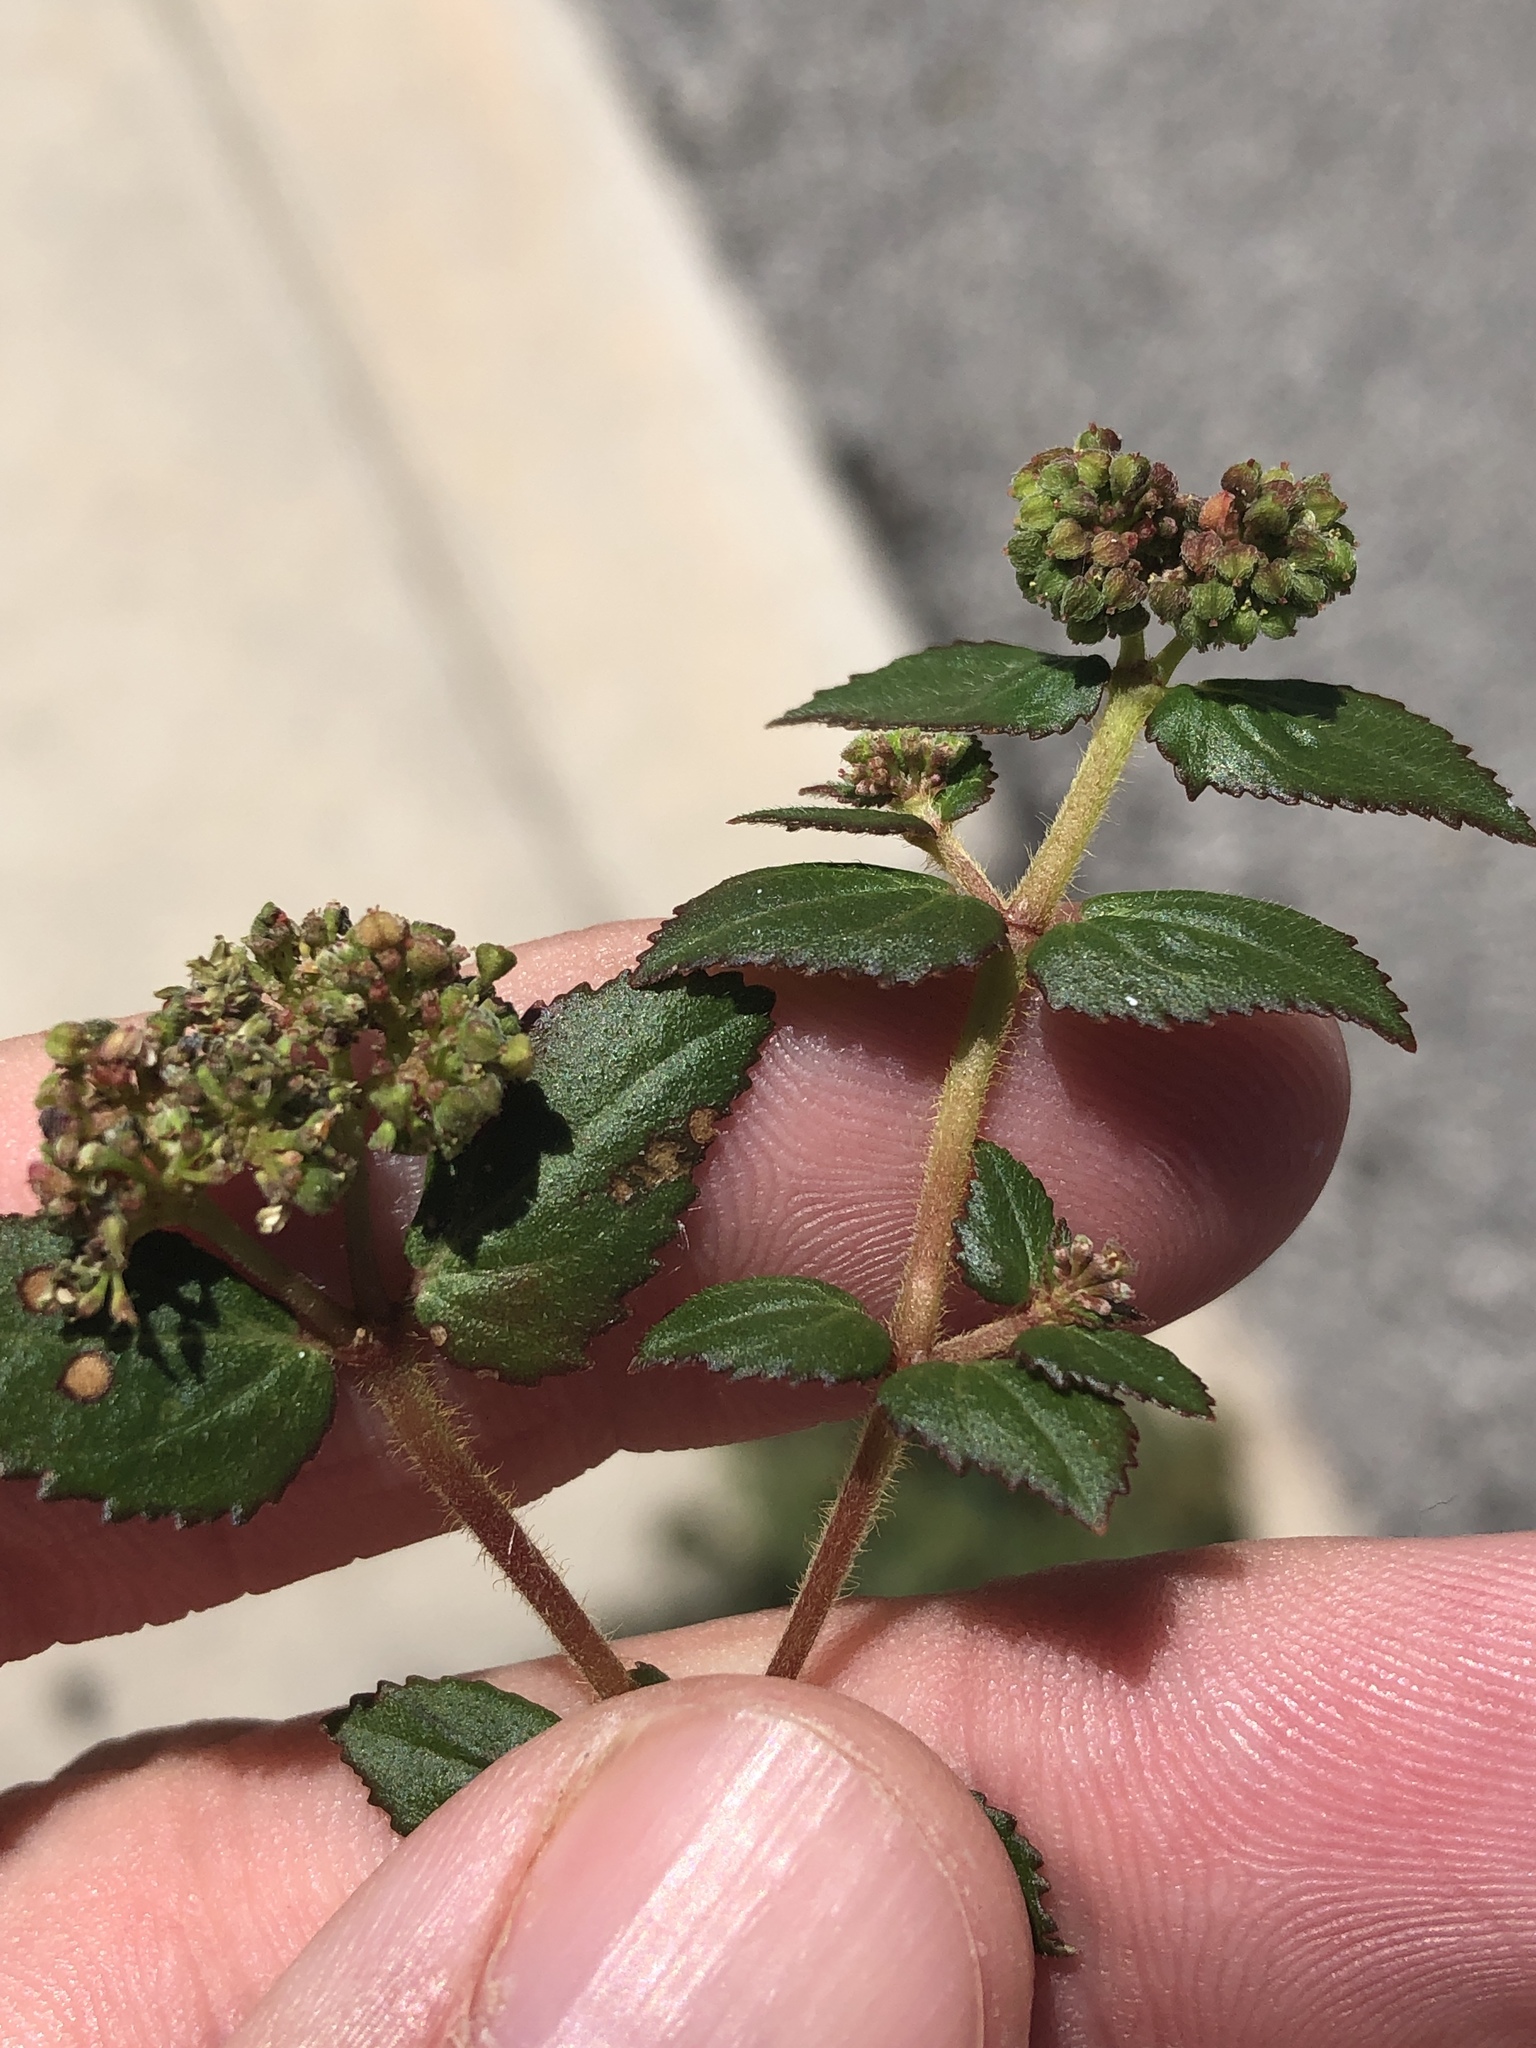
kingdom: Plantae
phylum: Tracheophyta
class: Magnoliopsida
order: Malpighiales
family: Euphorbiaceae
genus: Euphorbia
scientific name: Euphorbia ophthalmica
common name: Florida hammock sandmat
